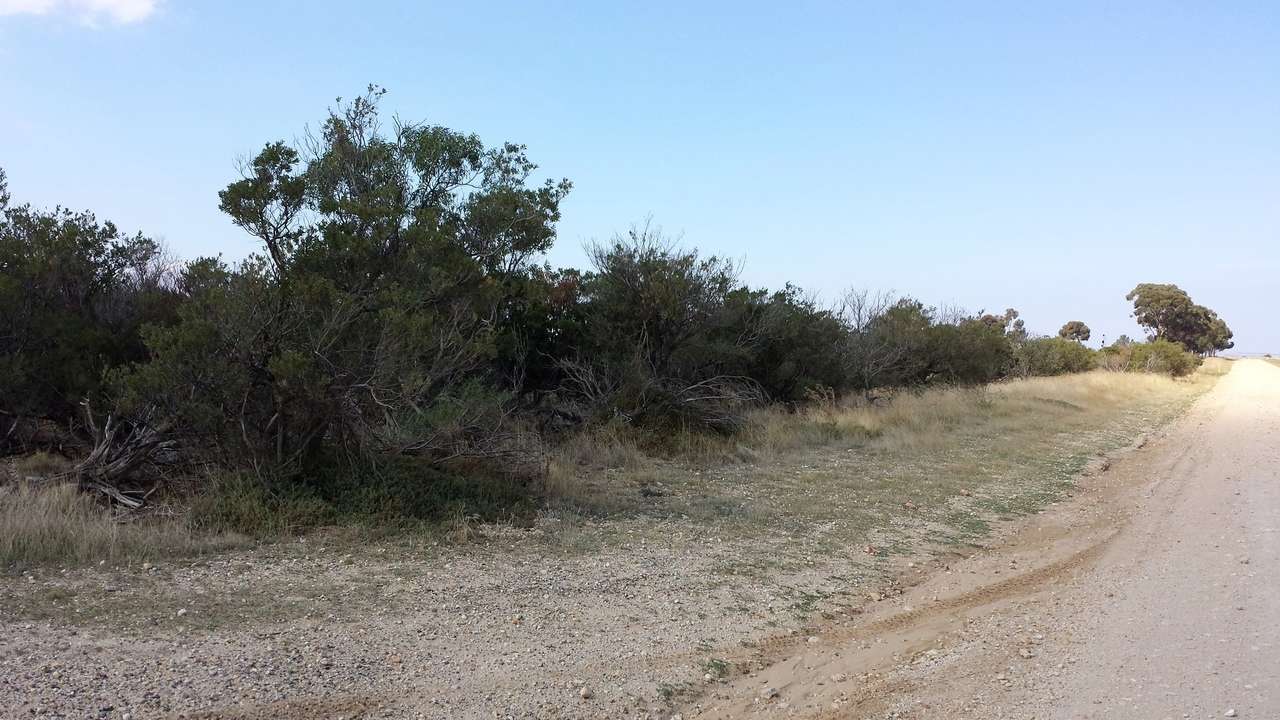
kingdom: Plantae
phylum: Tracheophyta
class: Magnoliopsida
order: Fabales
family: Fabaceae
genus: Acacia
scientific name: Acacia rostriformis
